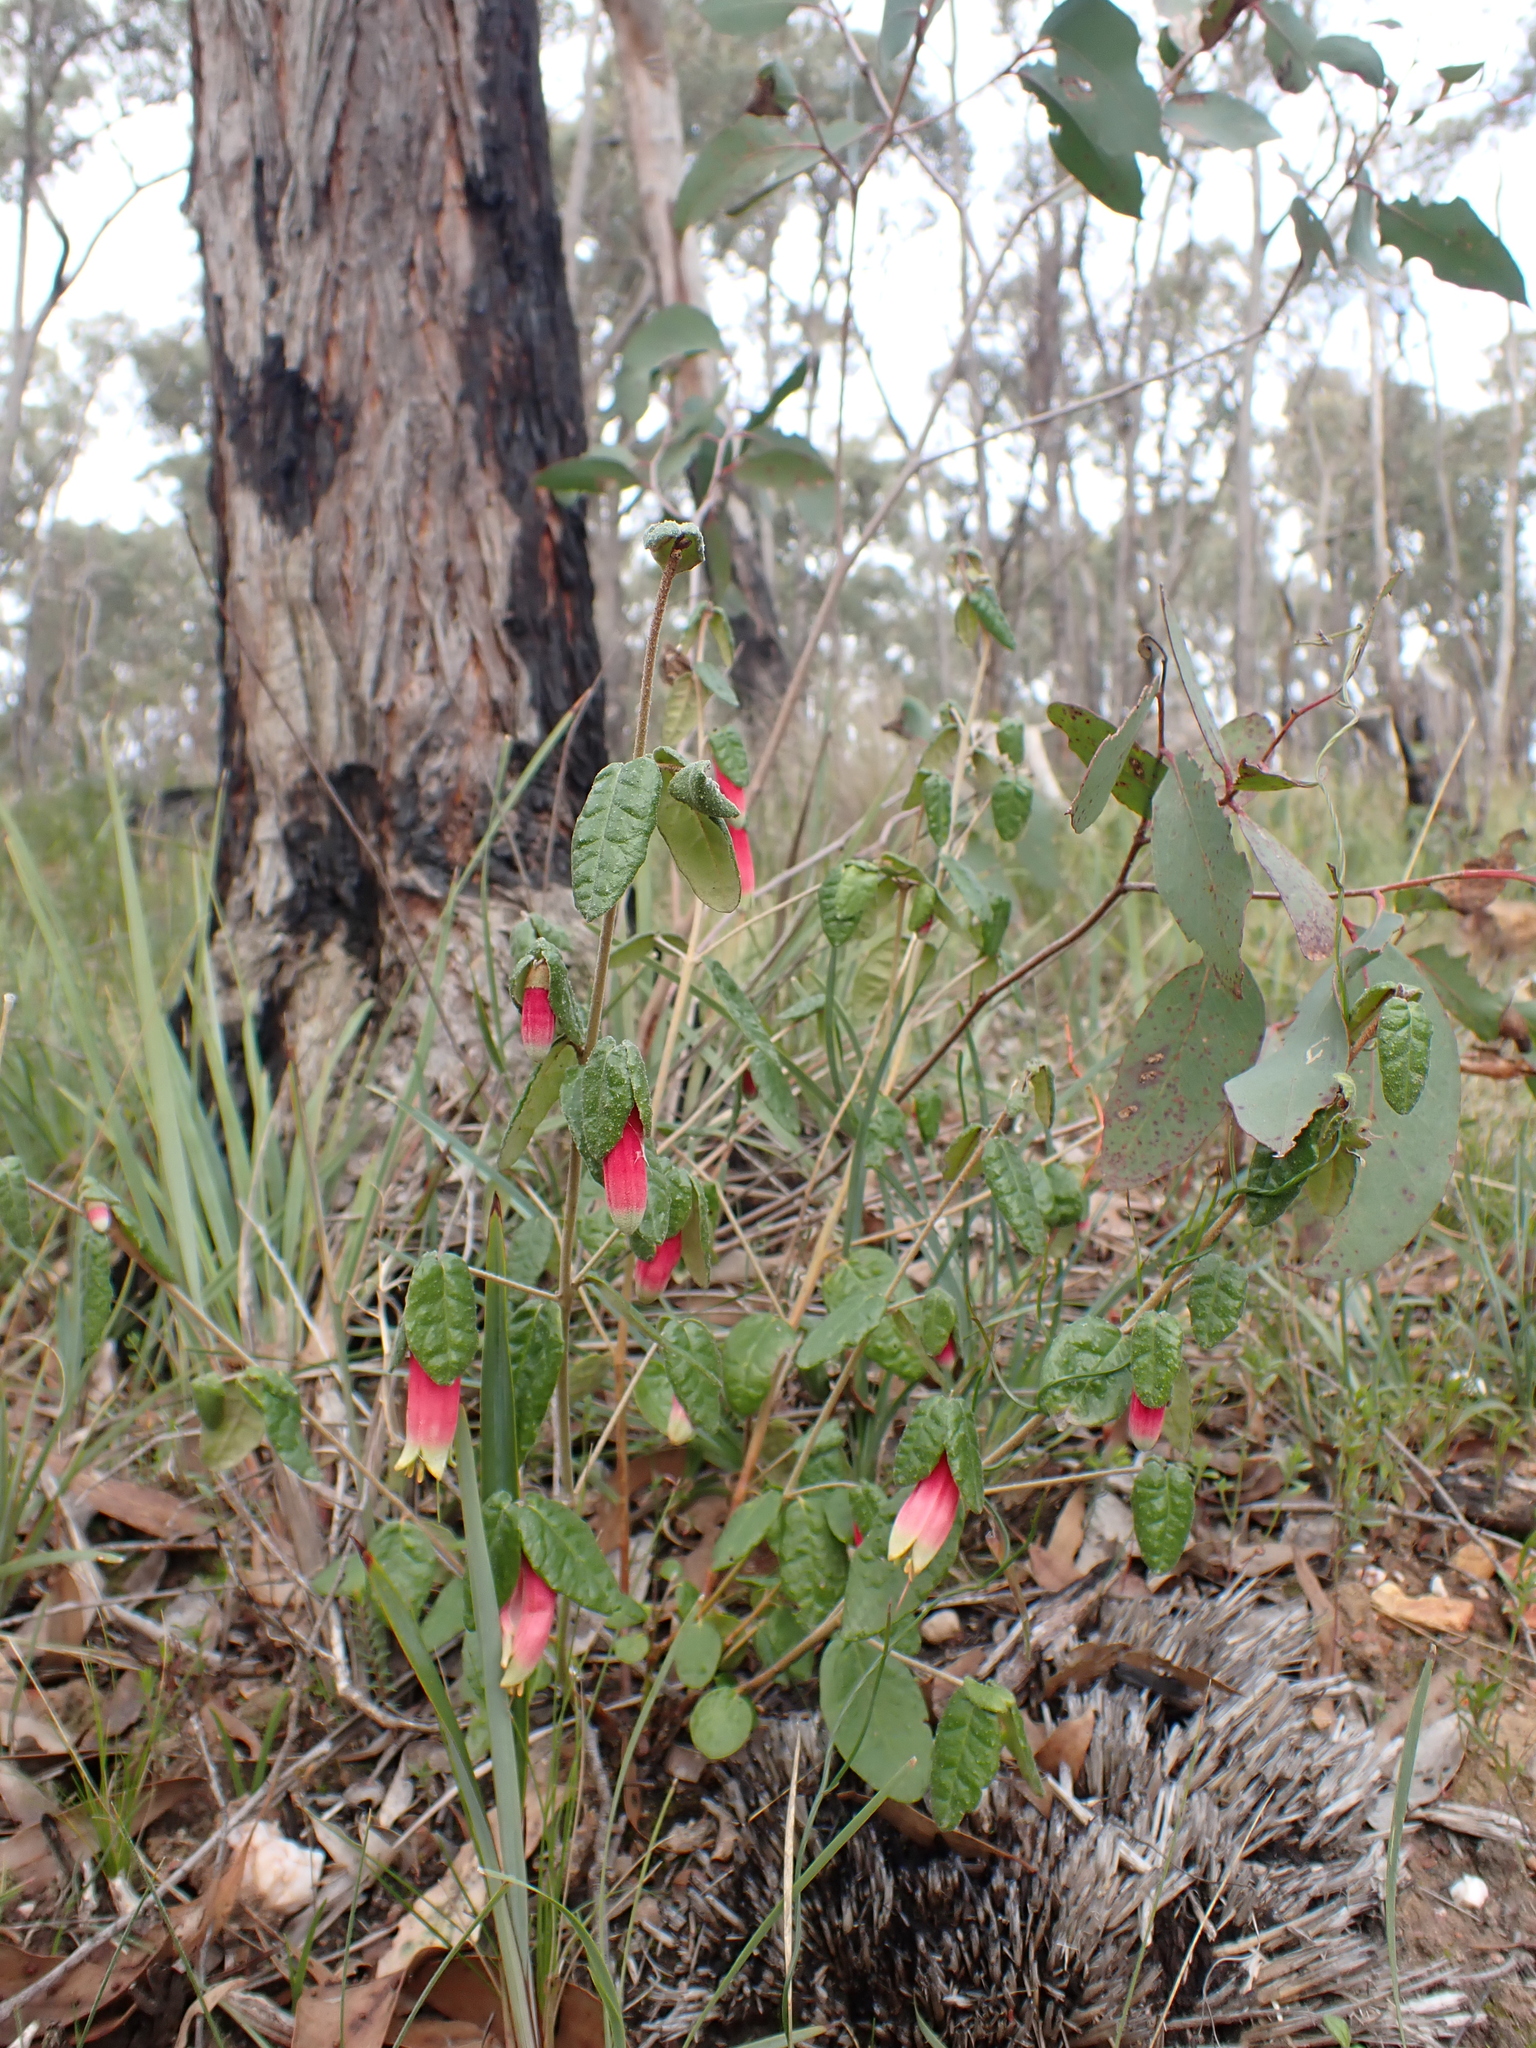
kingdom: Plantae
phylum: Tracheophyta
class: Magnoliopsida
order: Sapindales
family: Rutaceae
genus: Correa
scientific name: Correa reflexa
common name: Common correa
